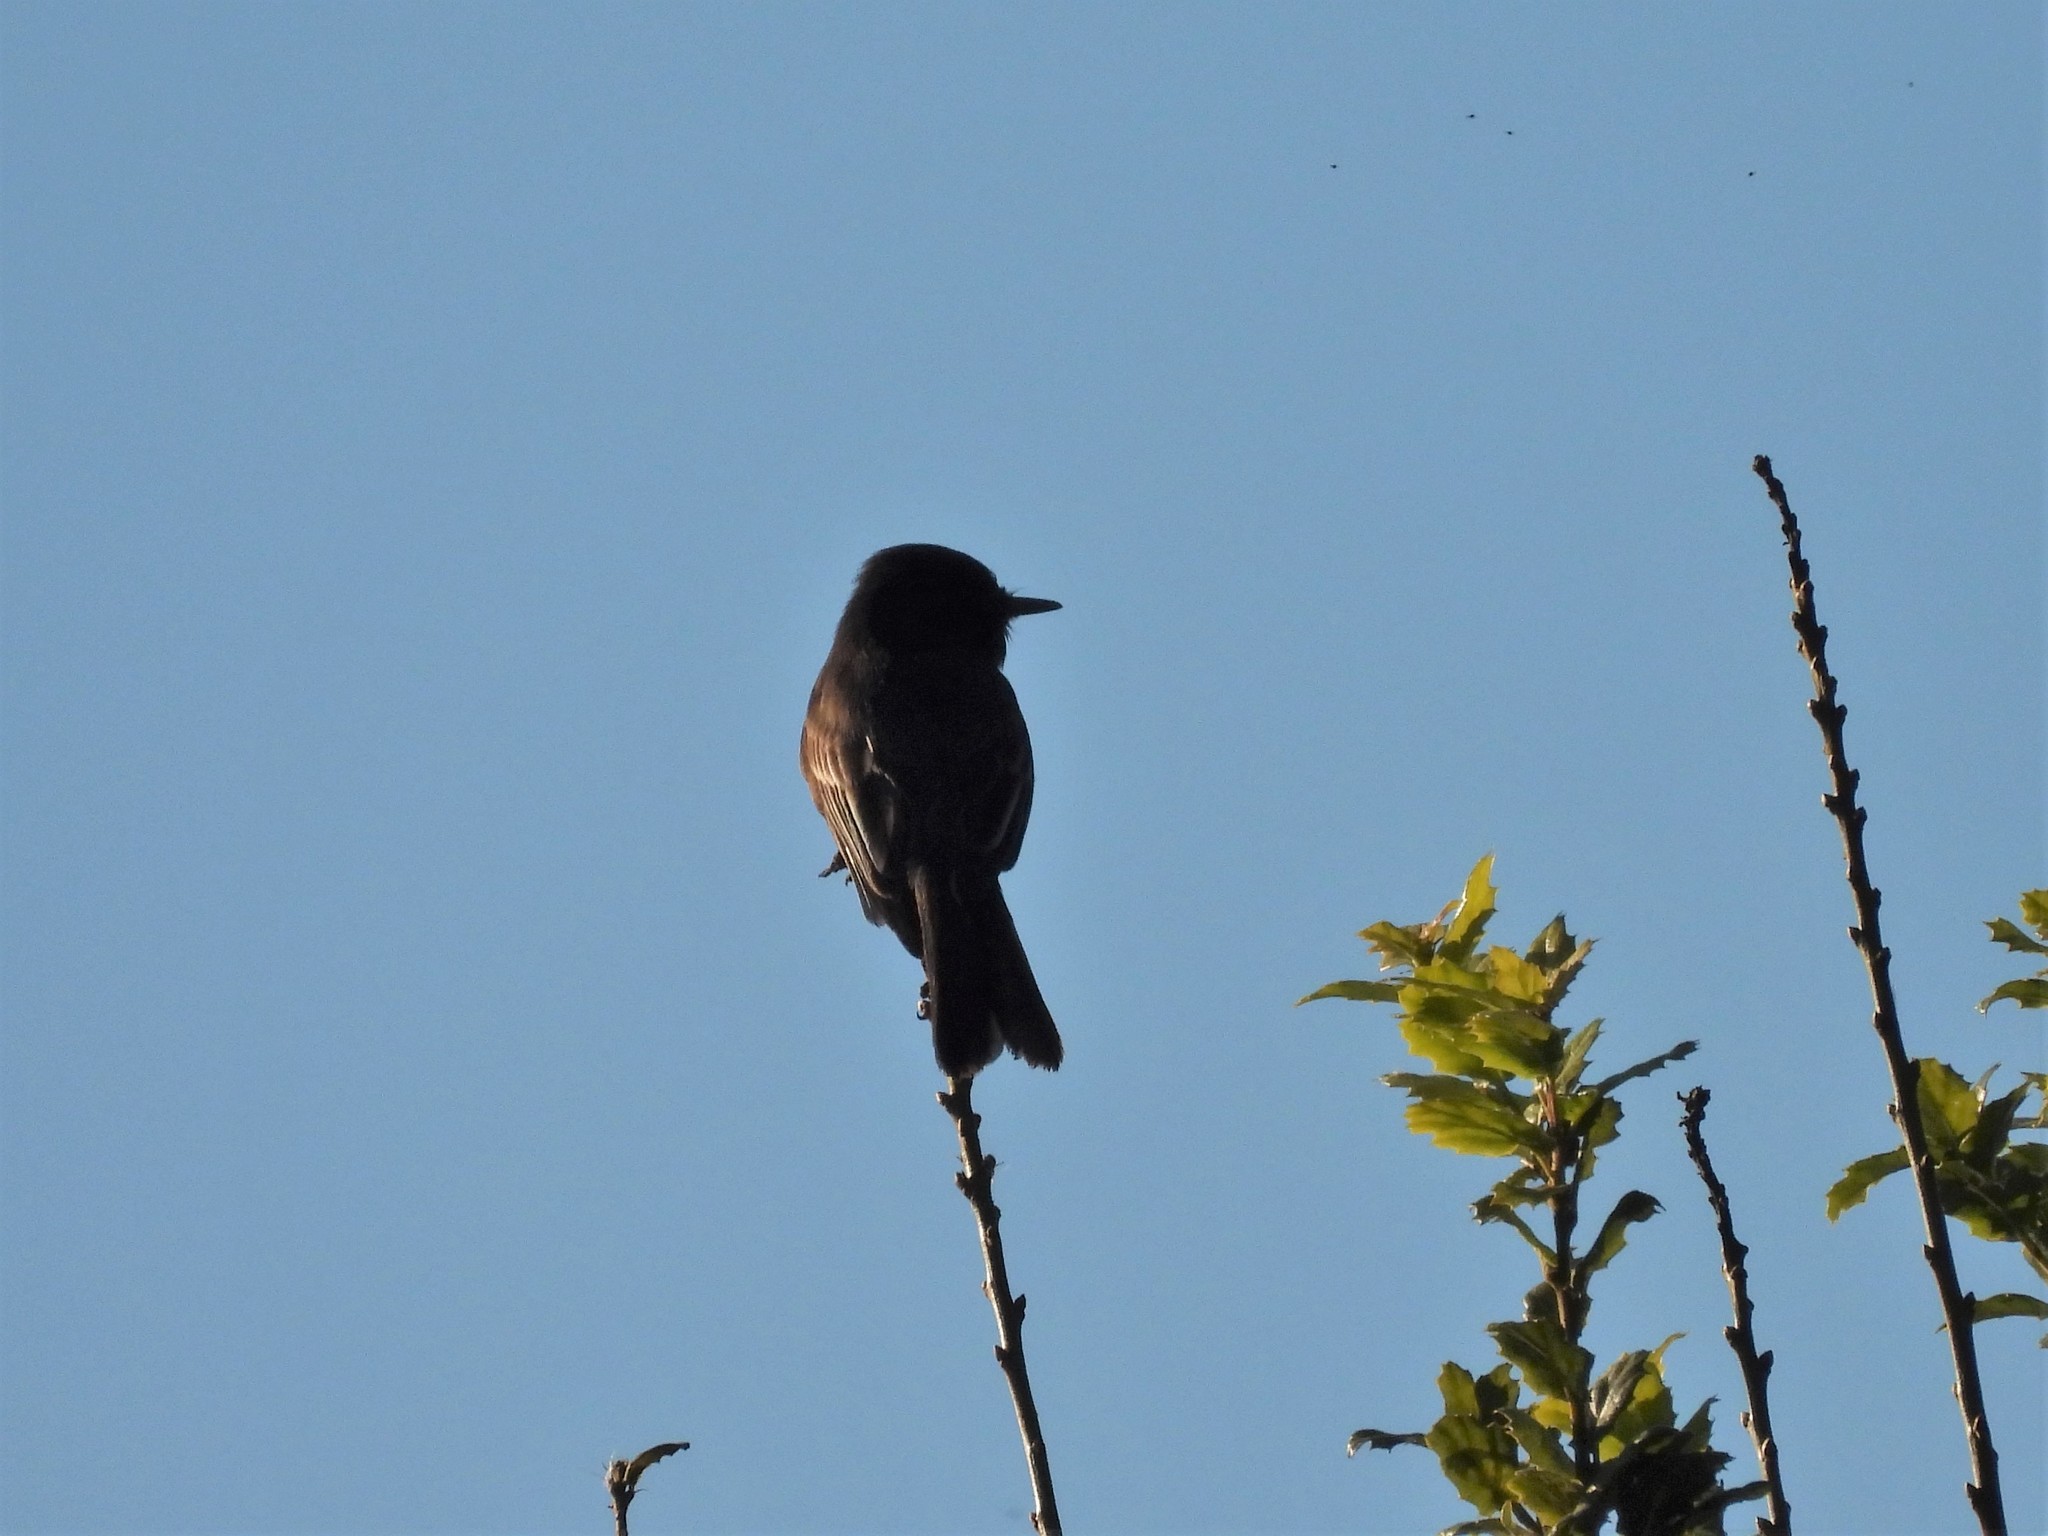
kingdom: Animalia
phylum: Chordata
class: Aves
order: Passeriformes
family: Tyrannidae
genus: Sayornis
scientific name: Sayornis nigricans
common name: Black phoebe
